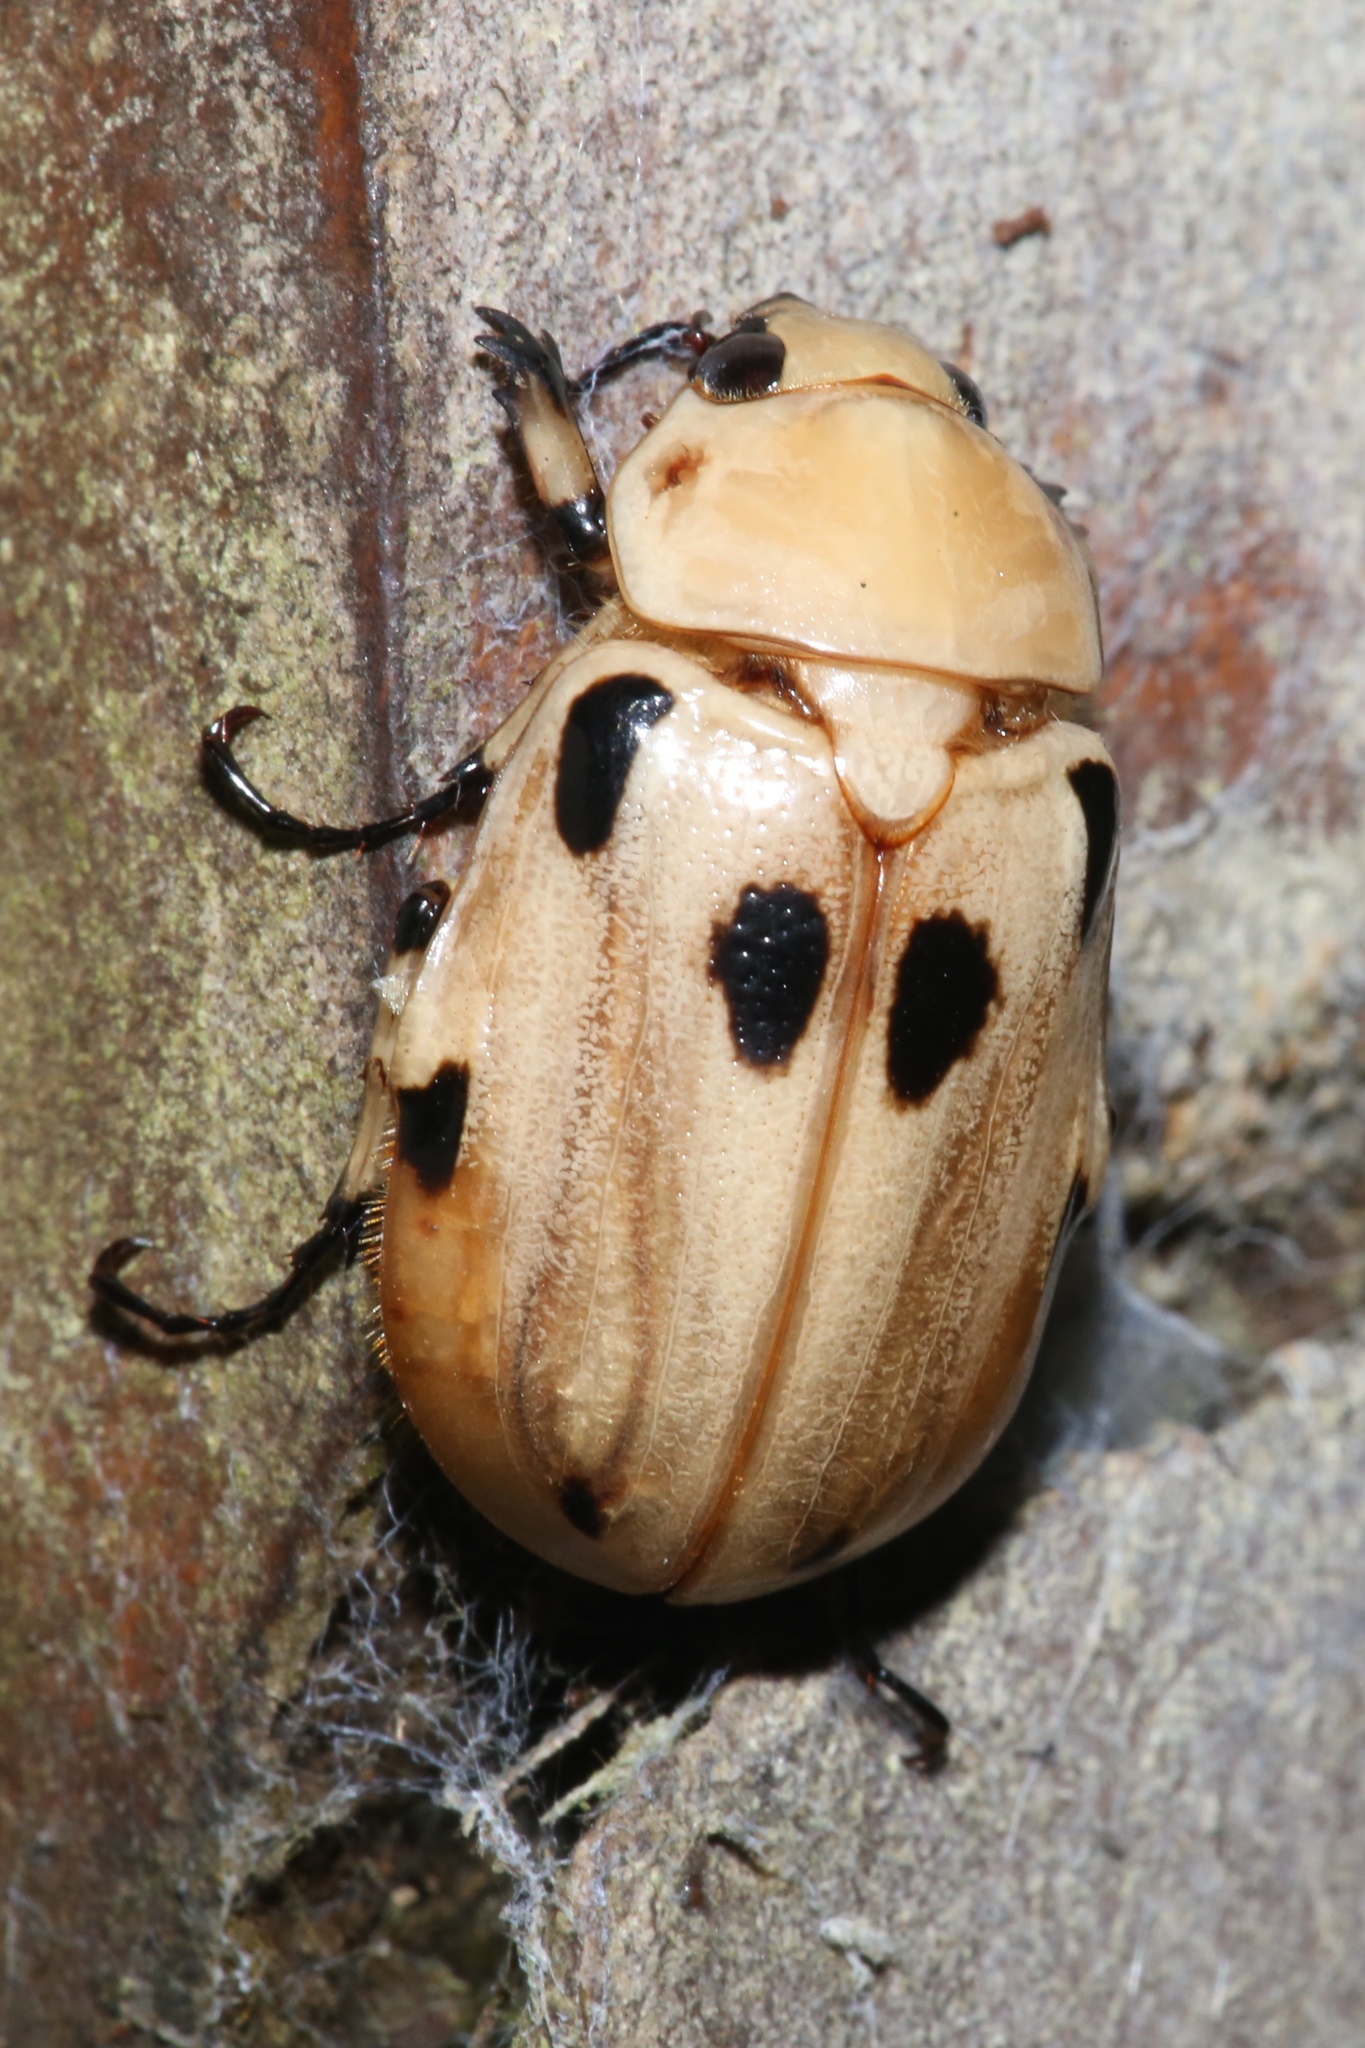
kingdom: Animalia
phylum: Arthropoda
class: Insecta
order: Coleoptera
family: Scarabaeidae
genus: Ancognatha
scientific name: Ancognatha vulgaris
